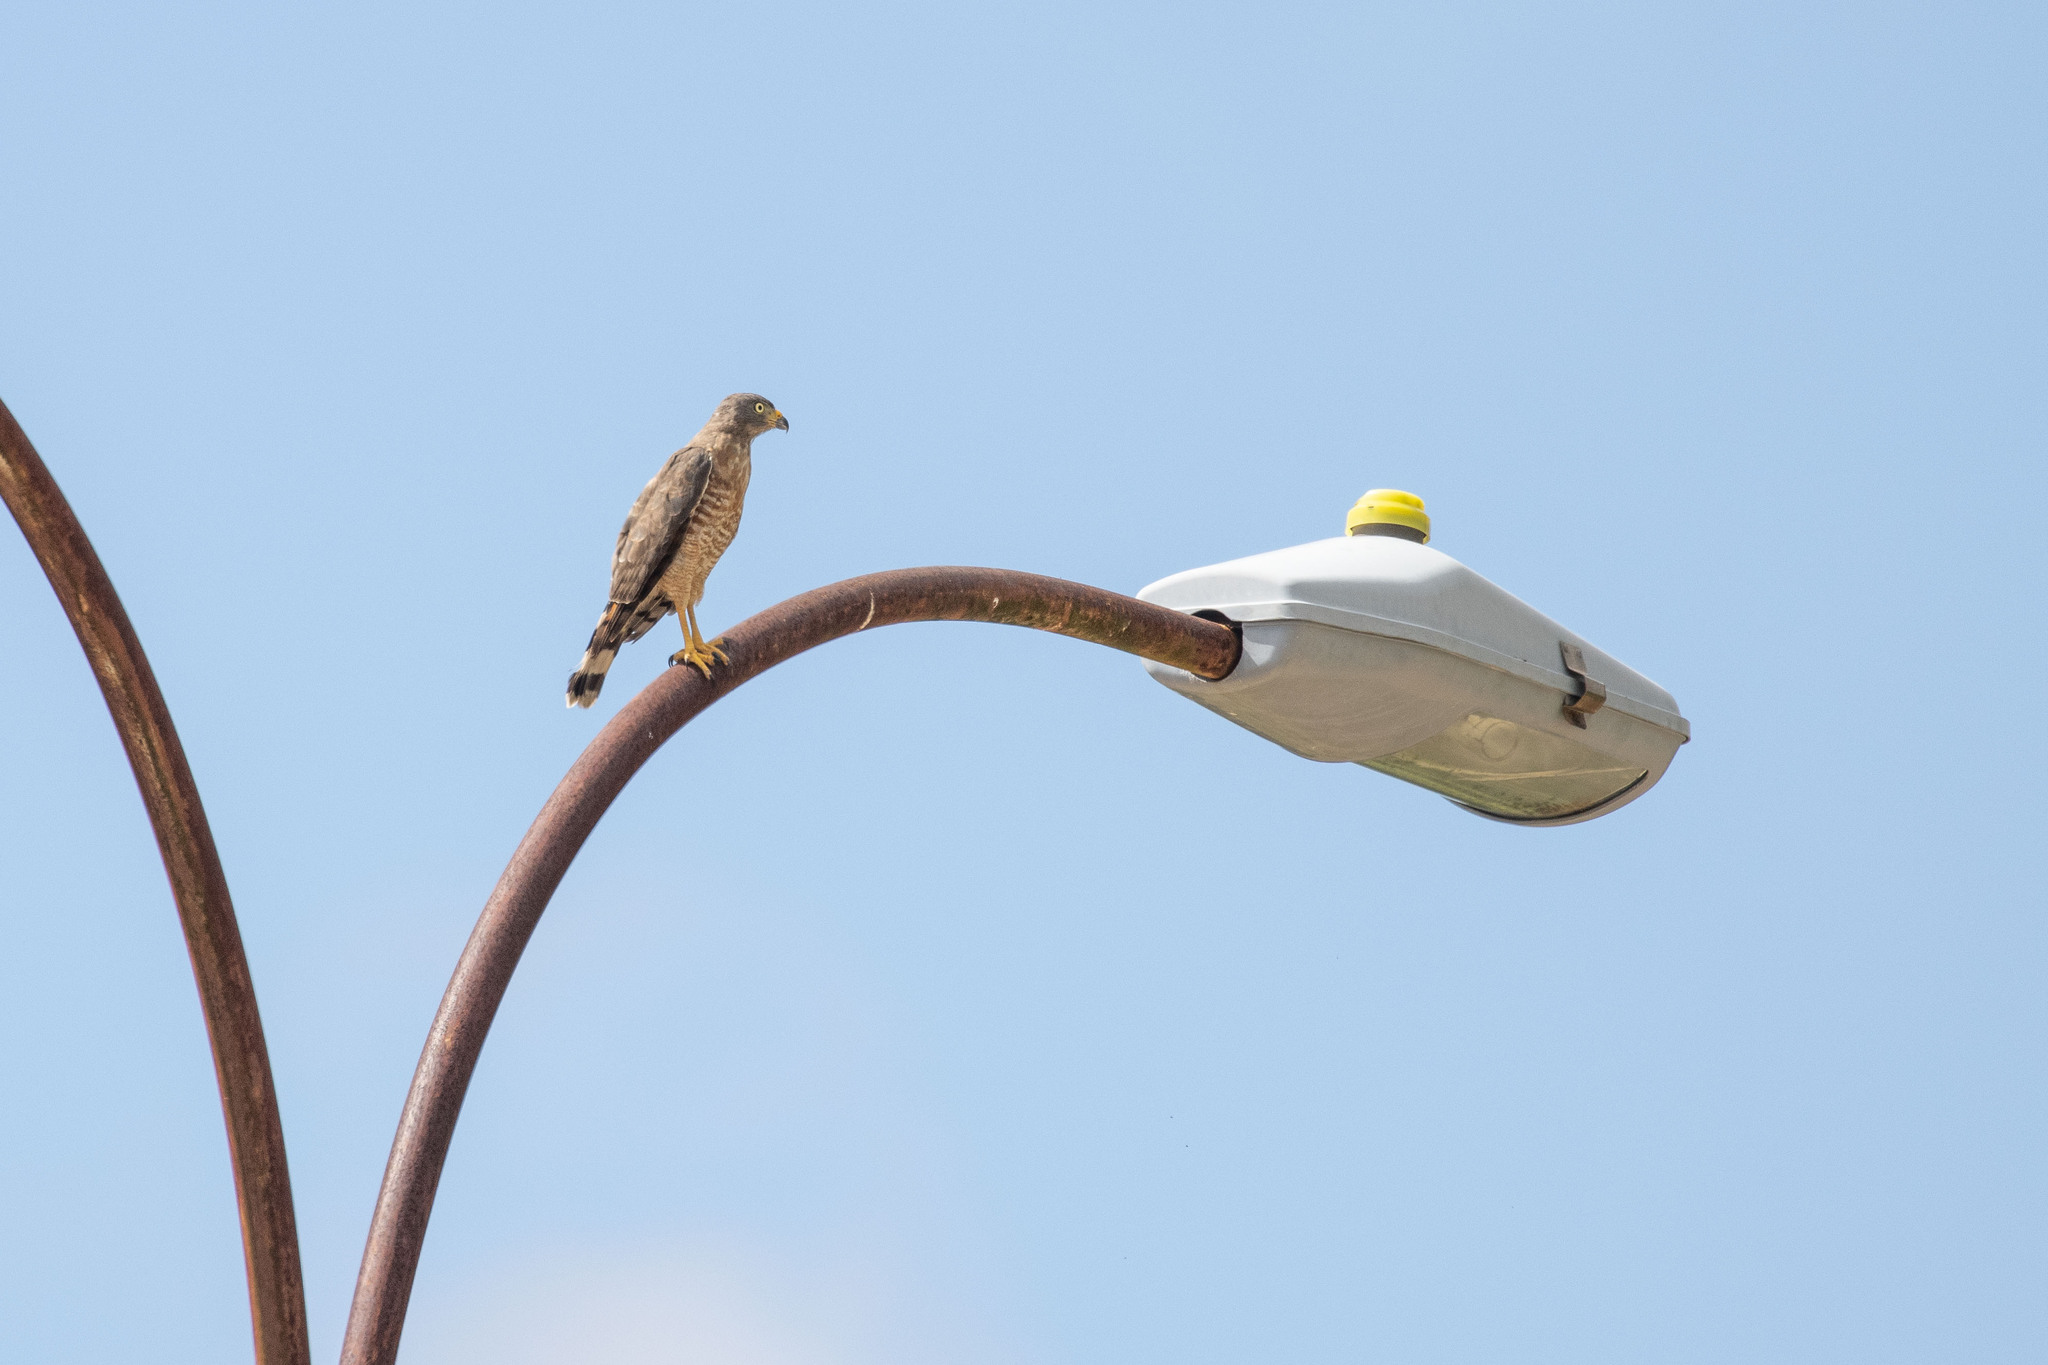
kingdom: Animalia
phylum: Chordata
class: Aves
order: Accipitriformes
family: Accipitridae
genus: Rupornis
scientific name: Rupornis magnirostris
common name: Roadside hawk
